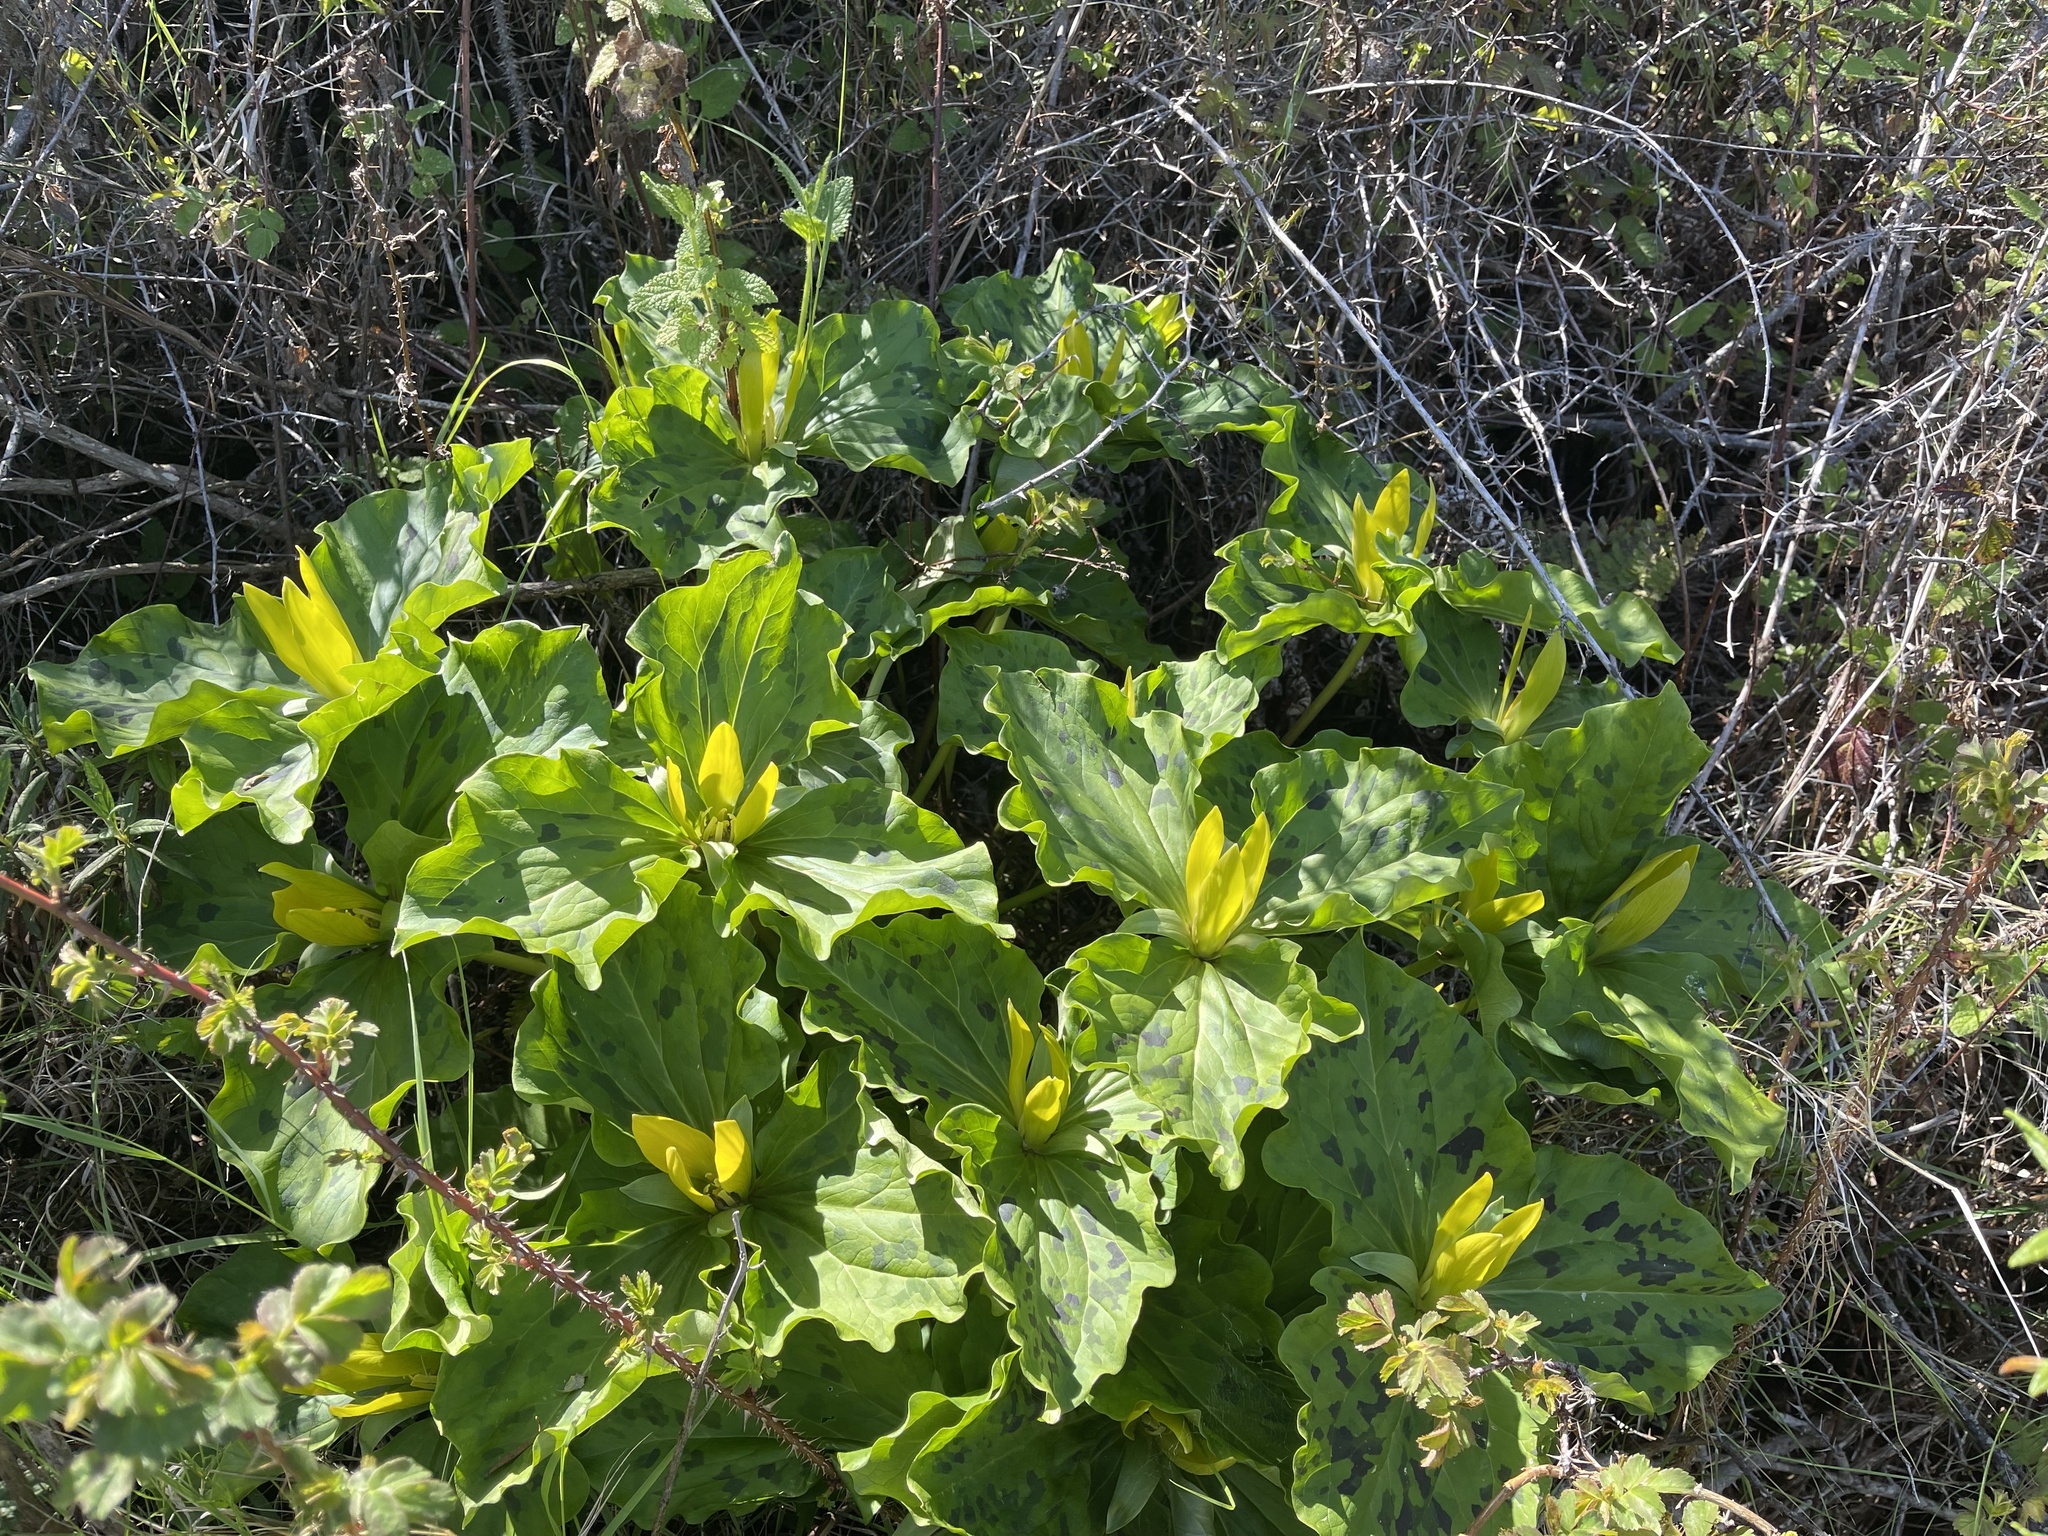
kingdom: Plantae
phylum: Tracheophyta
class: Liliopsida
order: Liliales
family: Melanthiaceae
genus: Trillium
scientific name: Trillium chloropetalum
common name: Giant trillium
